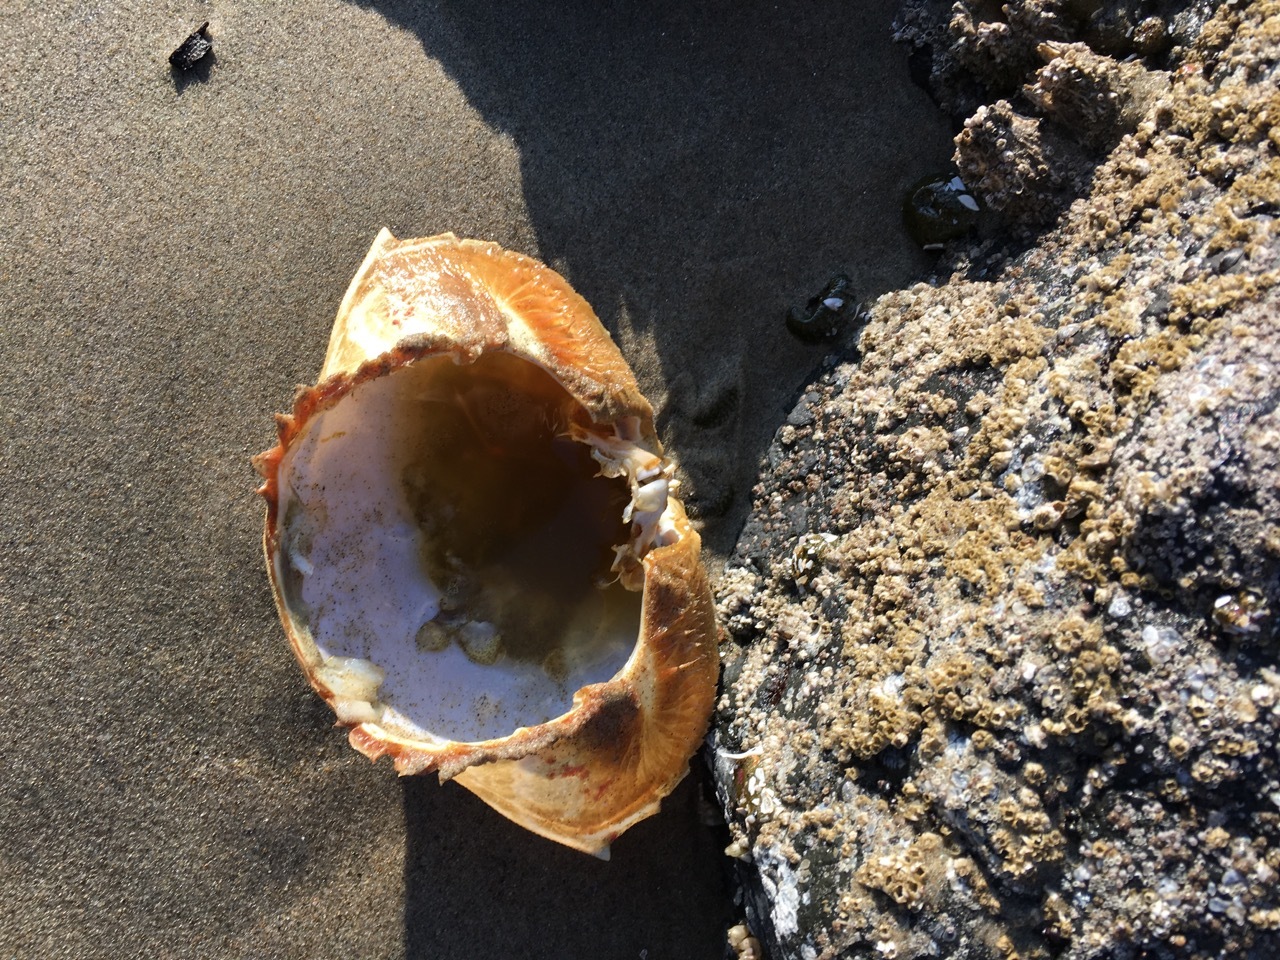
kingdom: Animalia
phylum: Arthropoda
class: Malacostraca
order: Decapoda
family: Cancridae
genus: Metacarcinus
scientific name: Metacarcinus magister
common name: Californian crab
